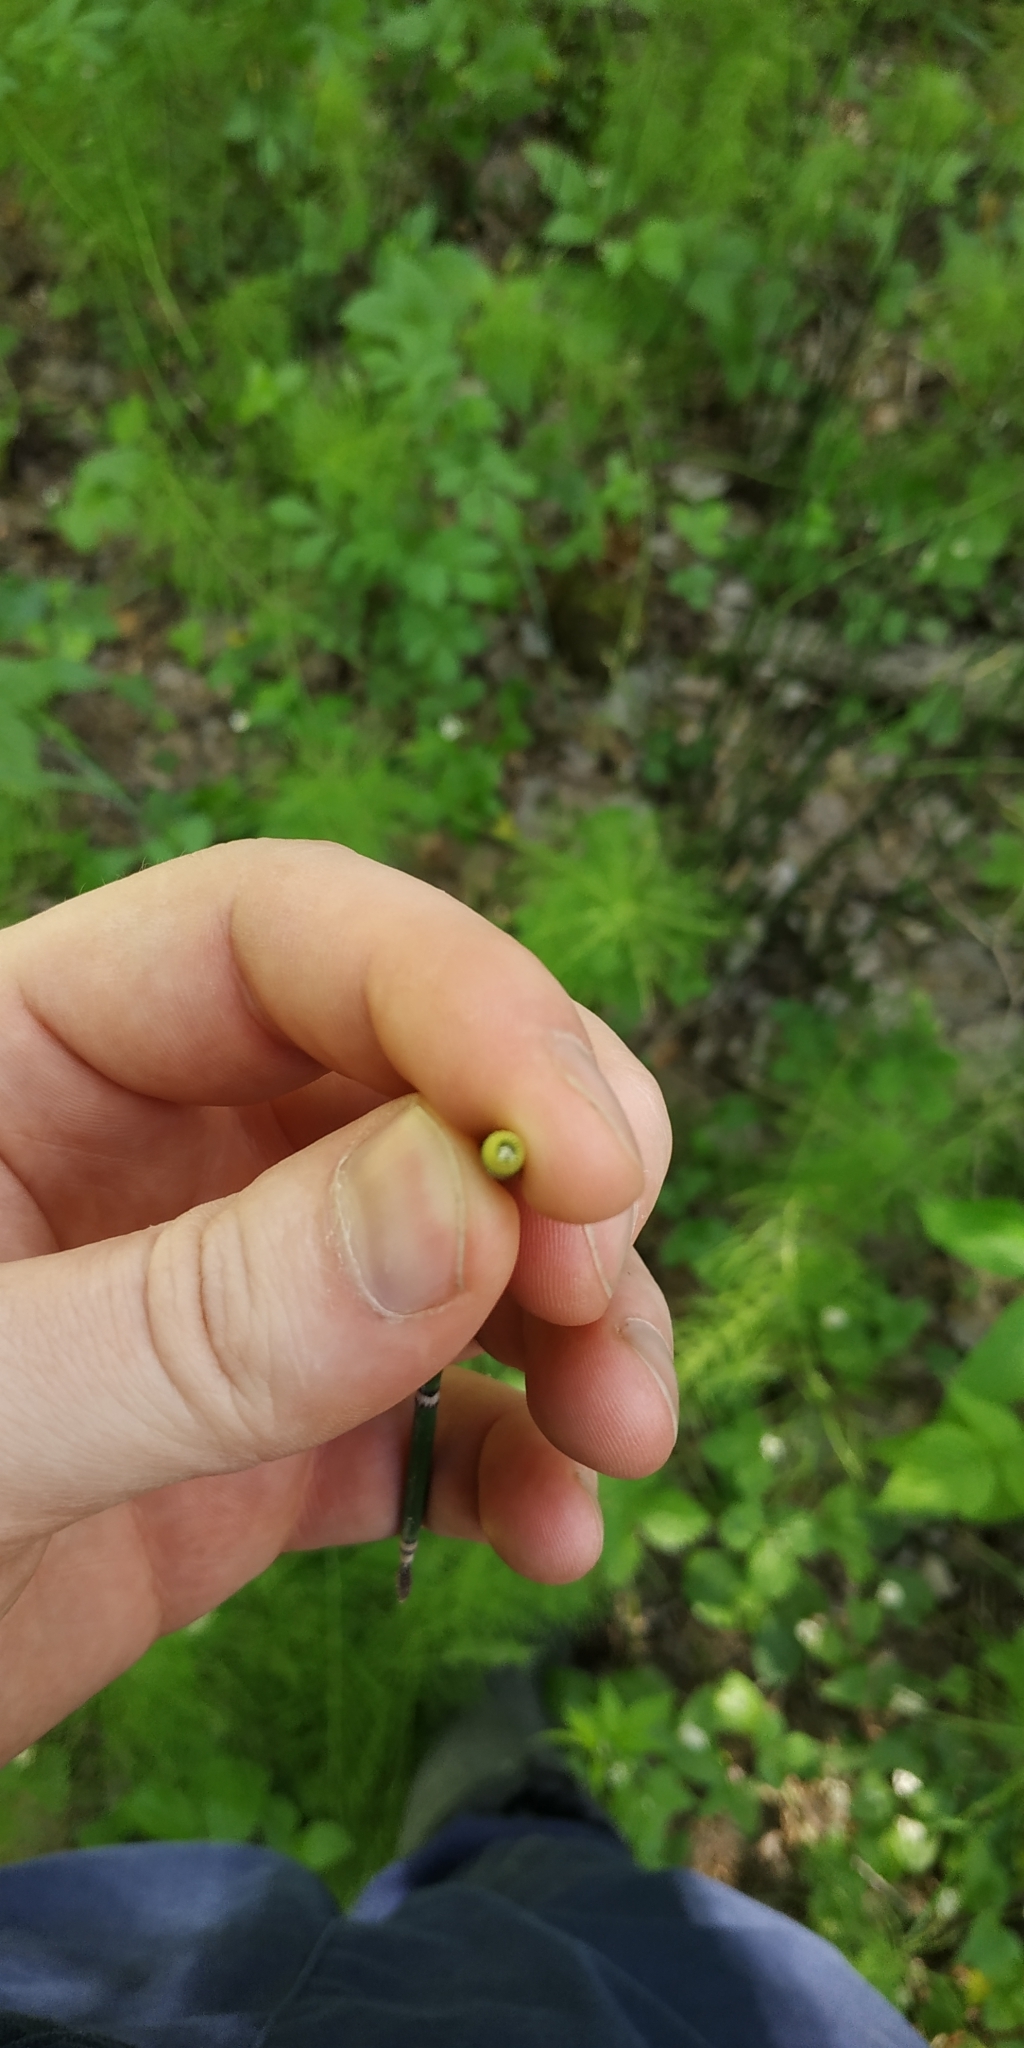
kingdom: Plantae
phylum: Tracheophyta
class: Polypodiopsida
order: Equisetales
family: Equisetaceae
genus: Equisetum
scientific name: Equisetum hyemale
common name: Rough horsetail
